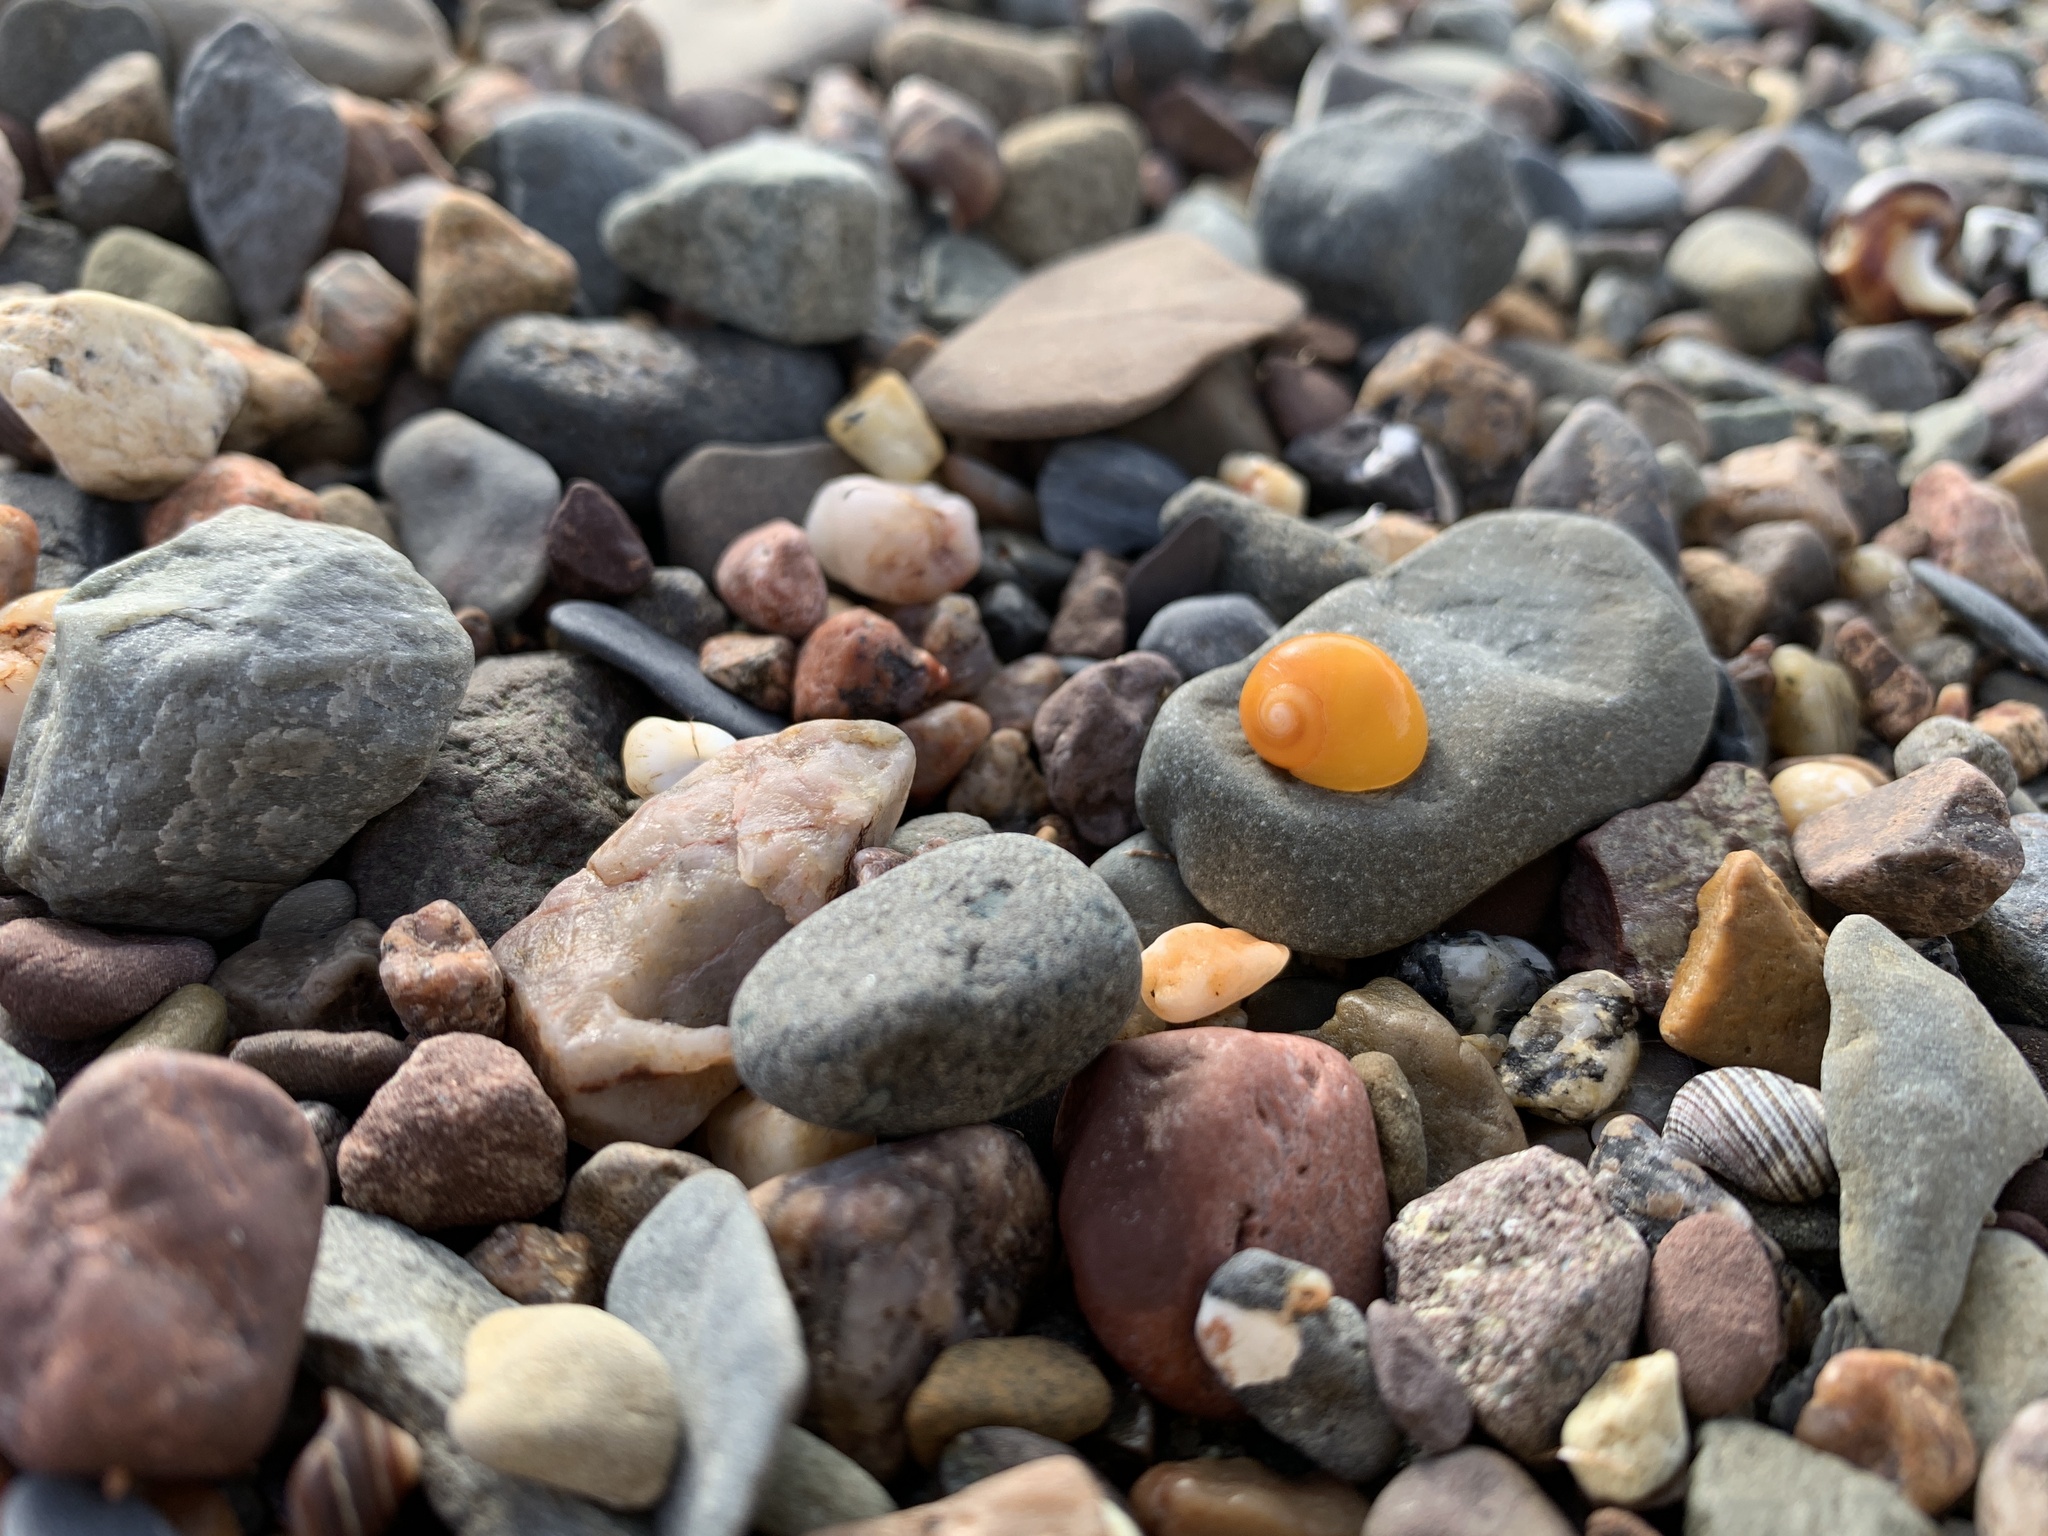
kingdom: Animalia
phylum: Mollusca
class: Gastropoda
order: Littorinimorpha
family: Littorinidae
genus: Littorina
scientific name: Littorina obtusata
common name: Flat periwinkle
